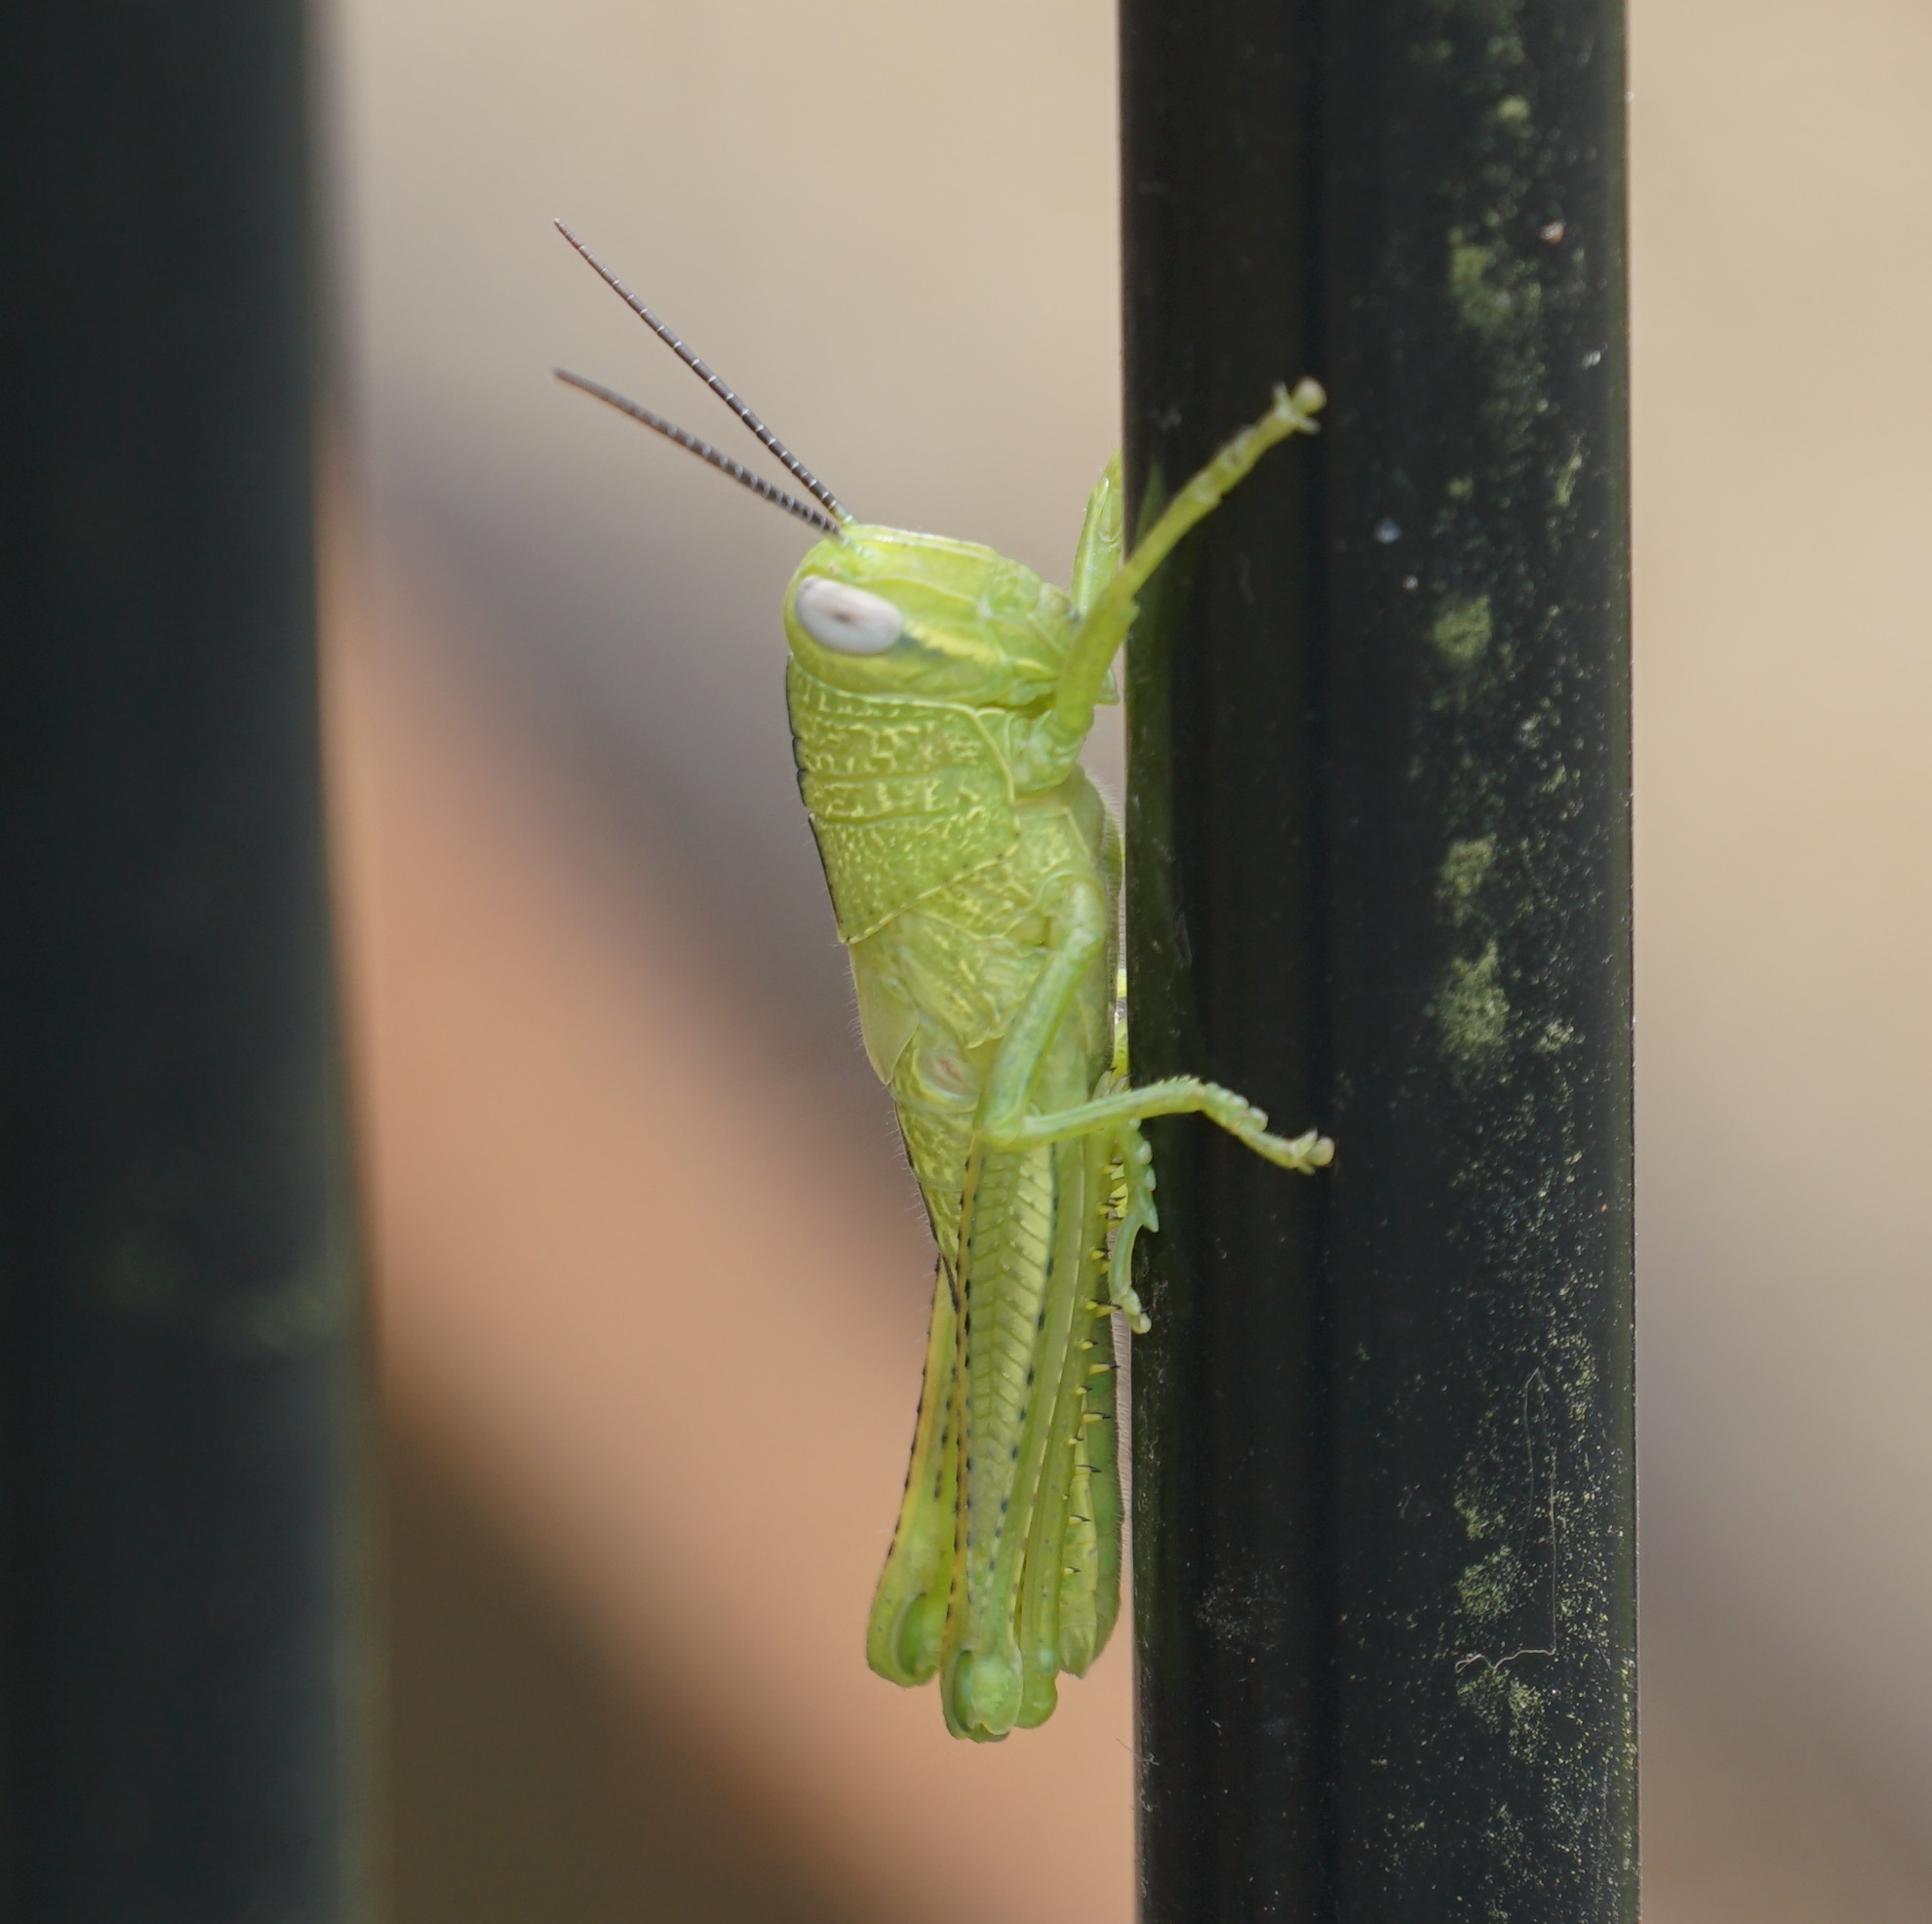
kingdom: Animalia
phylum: Arthropoda
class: Insecta
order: Orthoptera
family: Acrididae
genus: Valanga
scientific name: Valanga irregularis
